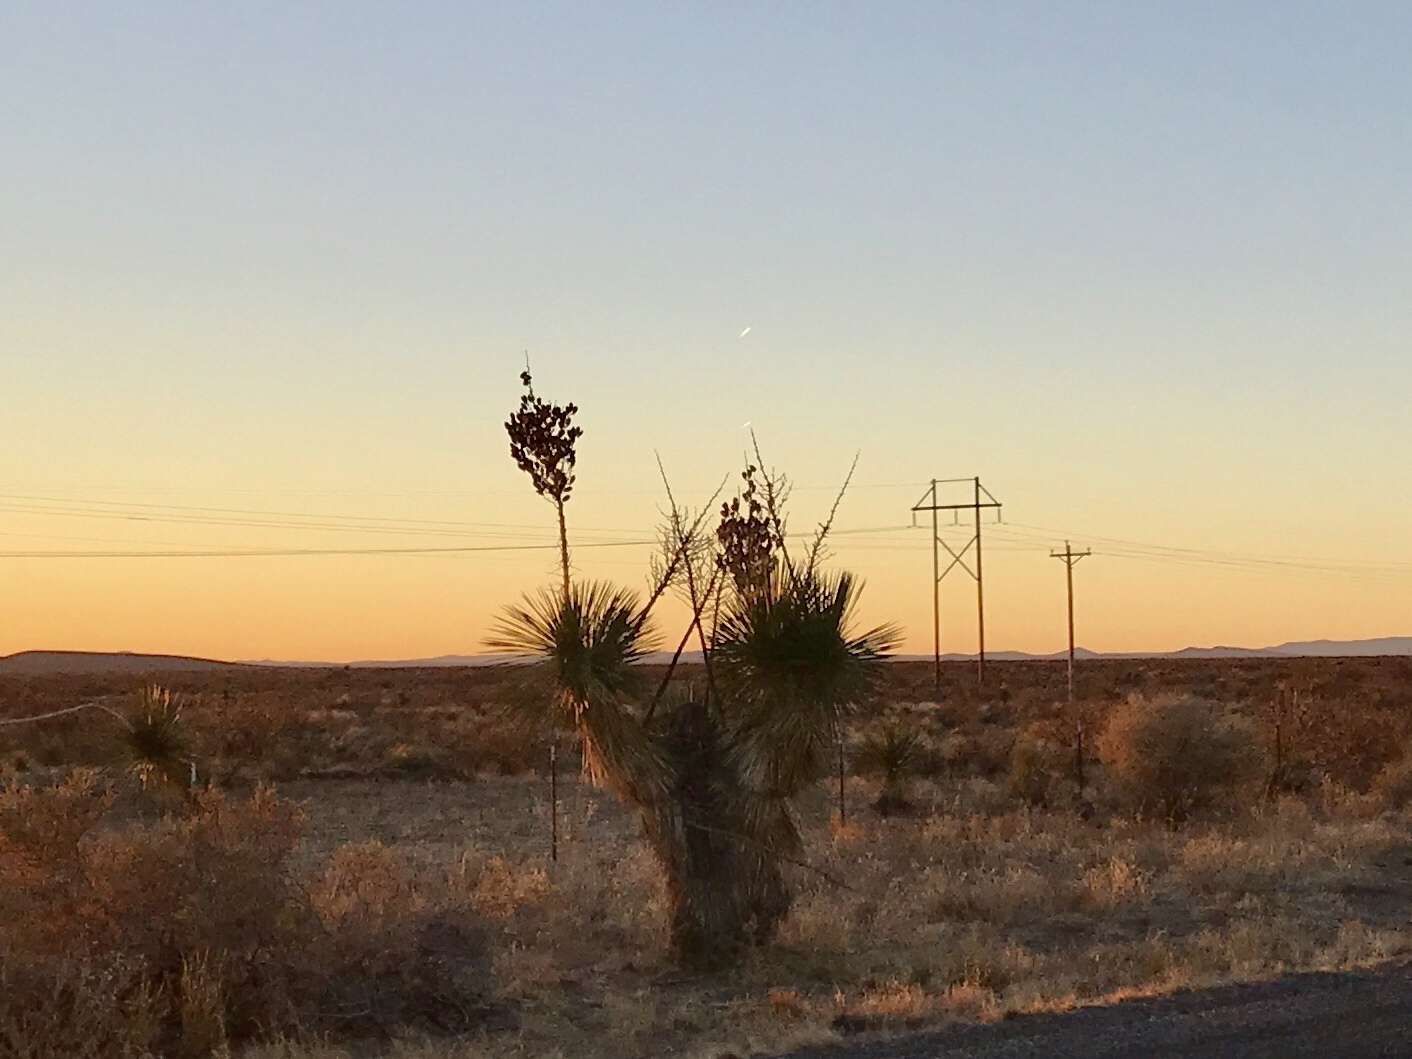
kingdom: Plantae
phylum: Tracheophyta
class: Liliopsida
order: Asparagales
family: Asparagaceae
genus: Yucca
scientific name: Yucca elata
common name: Palmella
